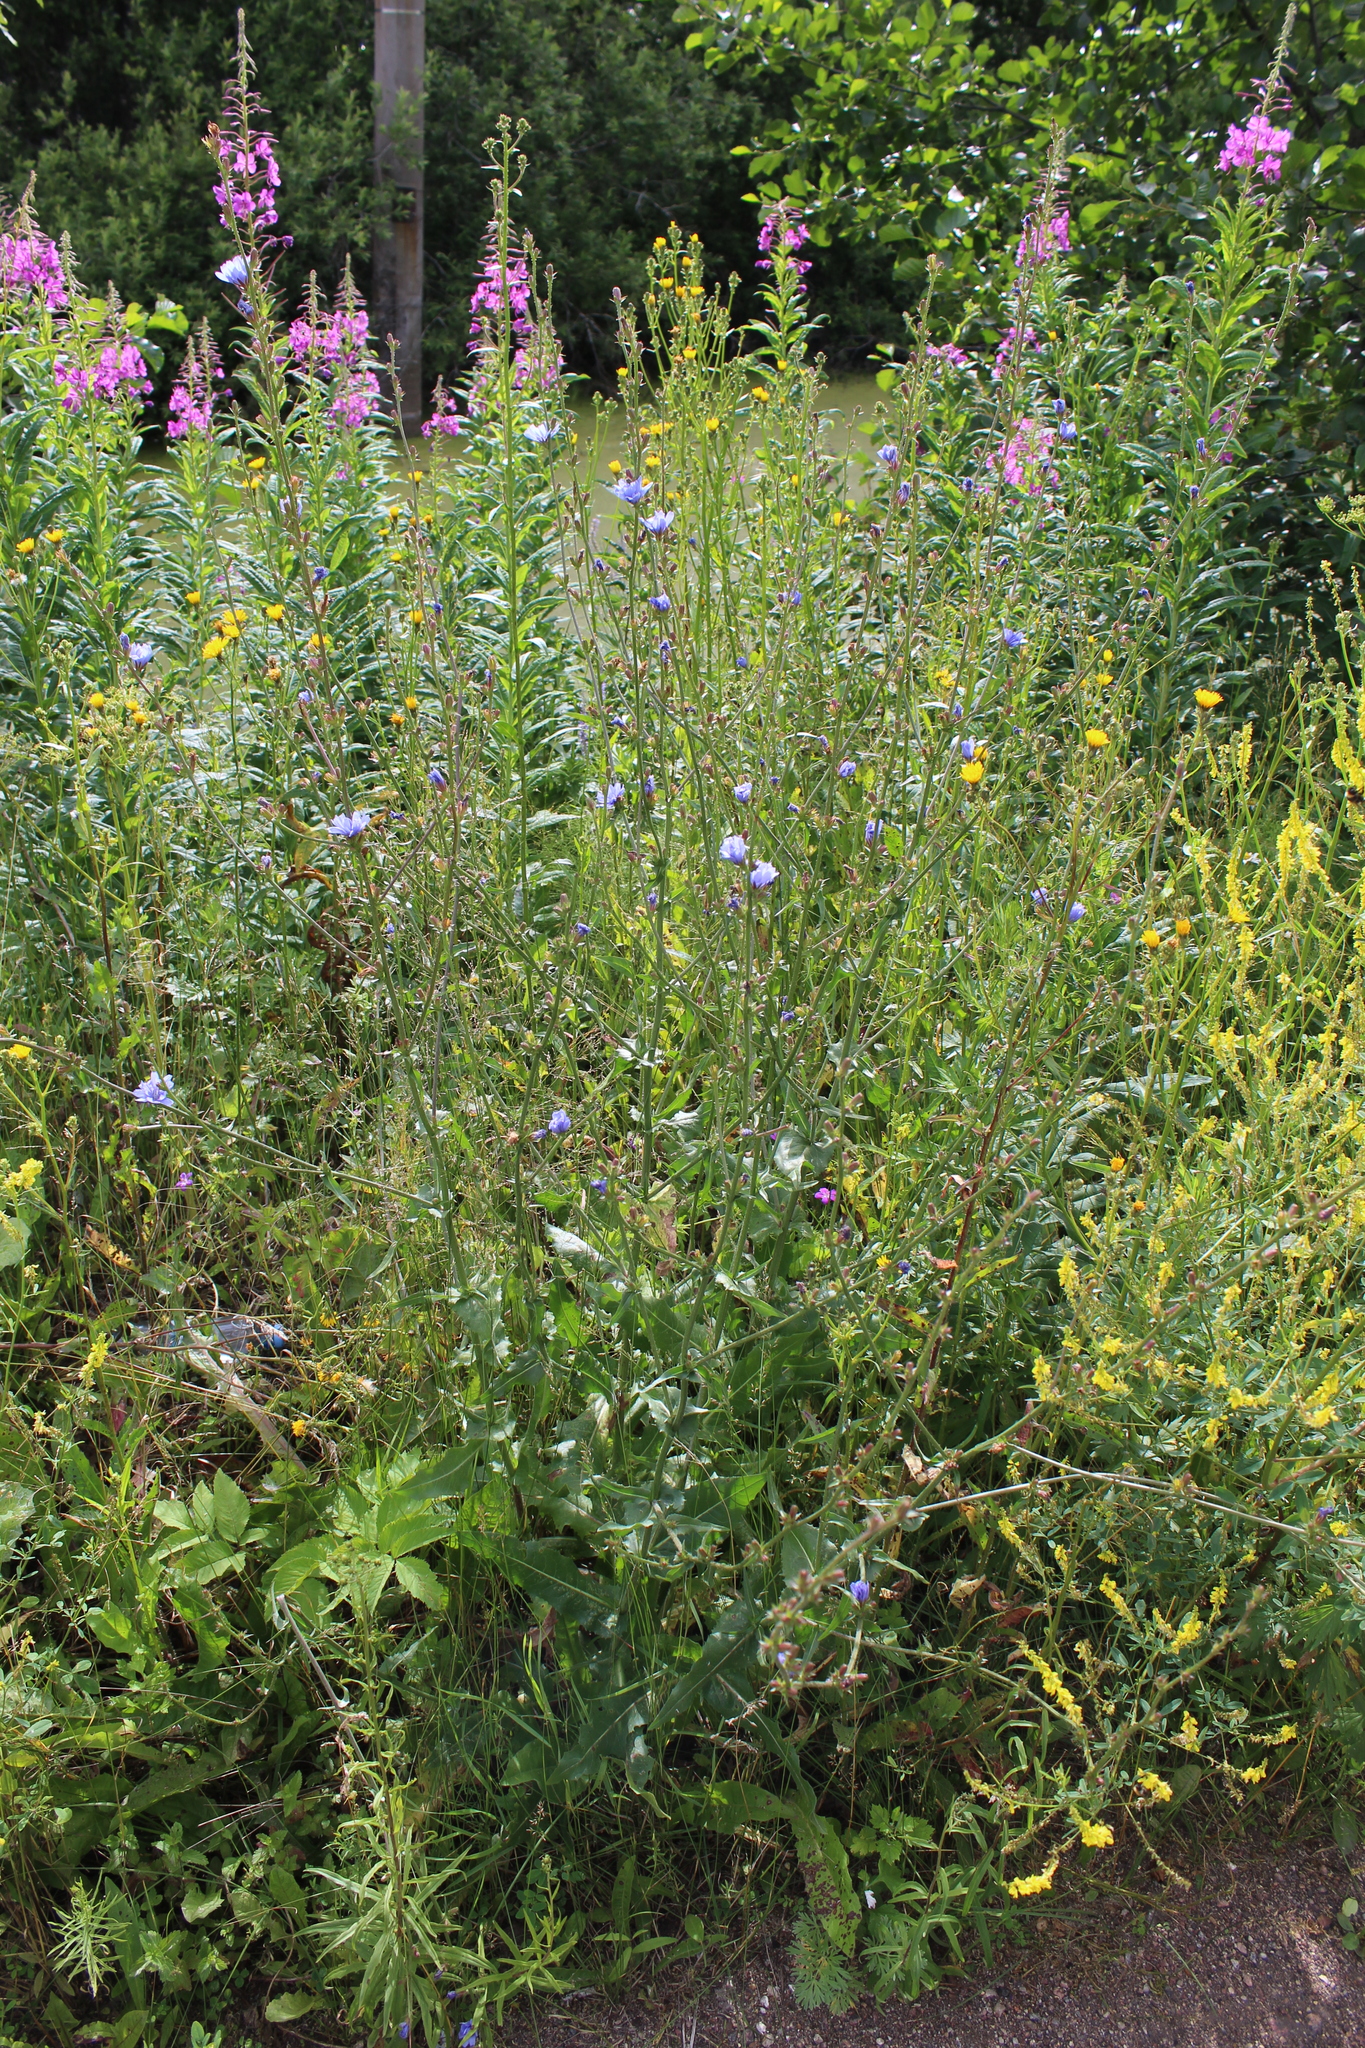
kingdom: Plantae
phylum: Tracheophyta
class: Magnoliopsida
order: Asterales
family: Asteraceae
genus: Cichorium
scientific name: Cichorium intybus
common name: Chicory
